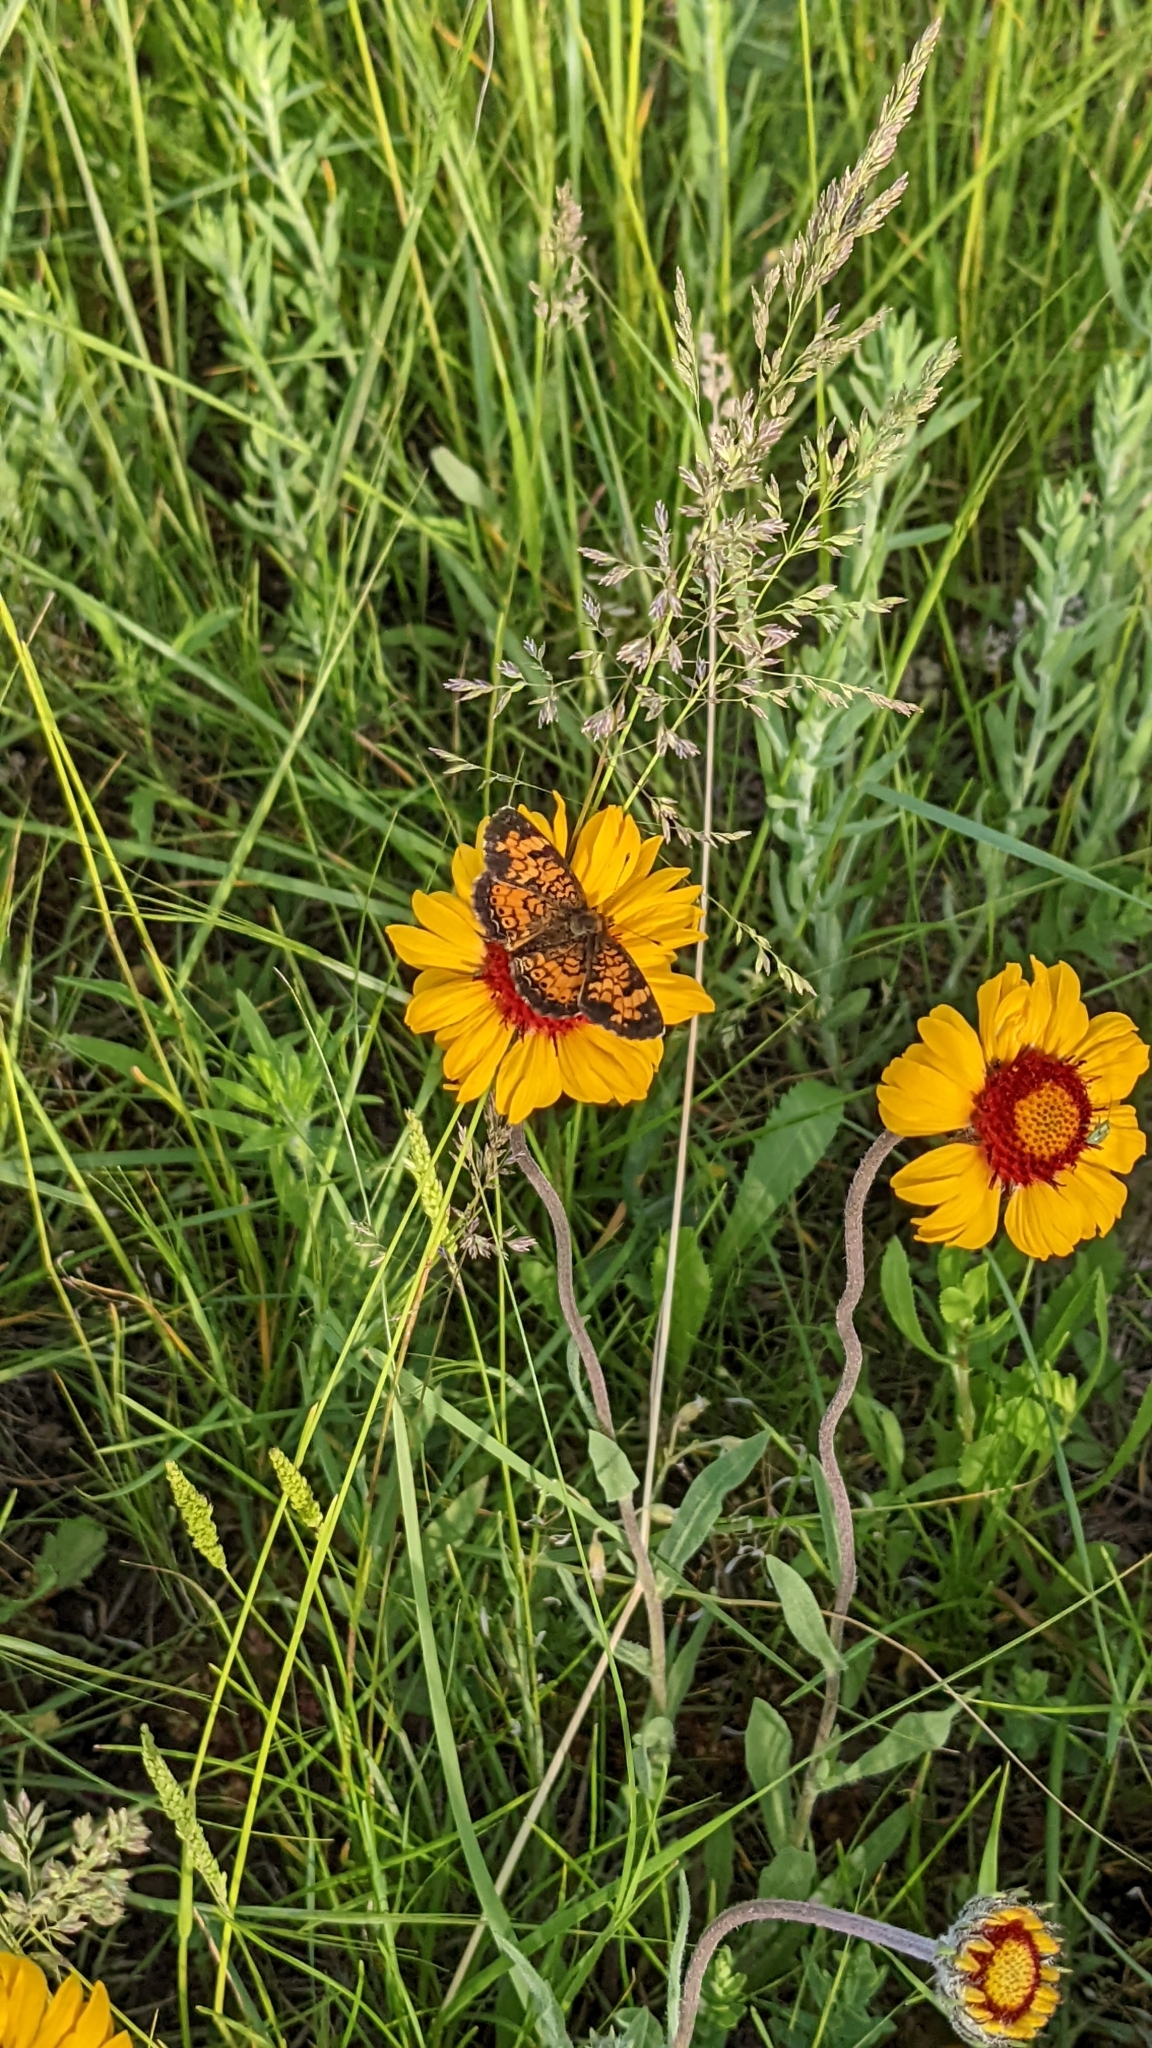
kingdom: Animalia
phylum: Arthropoda
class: Insecta
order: Lepidoptera
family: Nymphalidae
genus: Phyciodes
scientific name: Phyciodes tharos
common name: Pearl crescent
